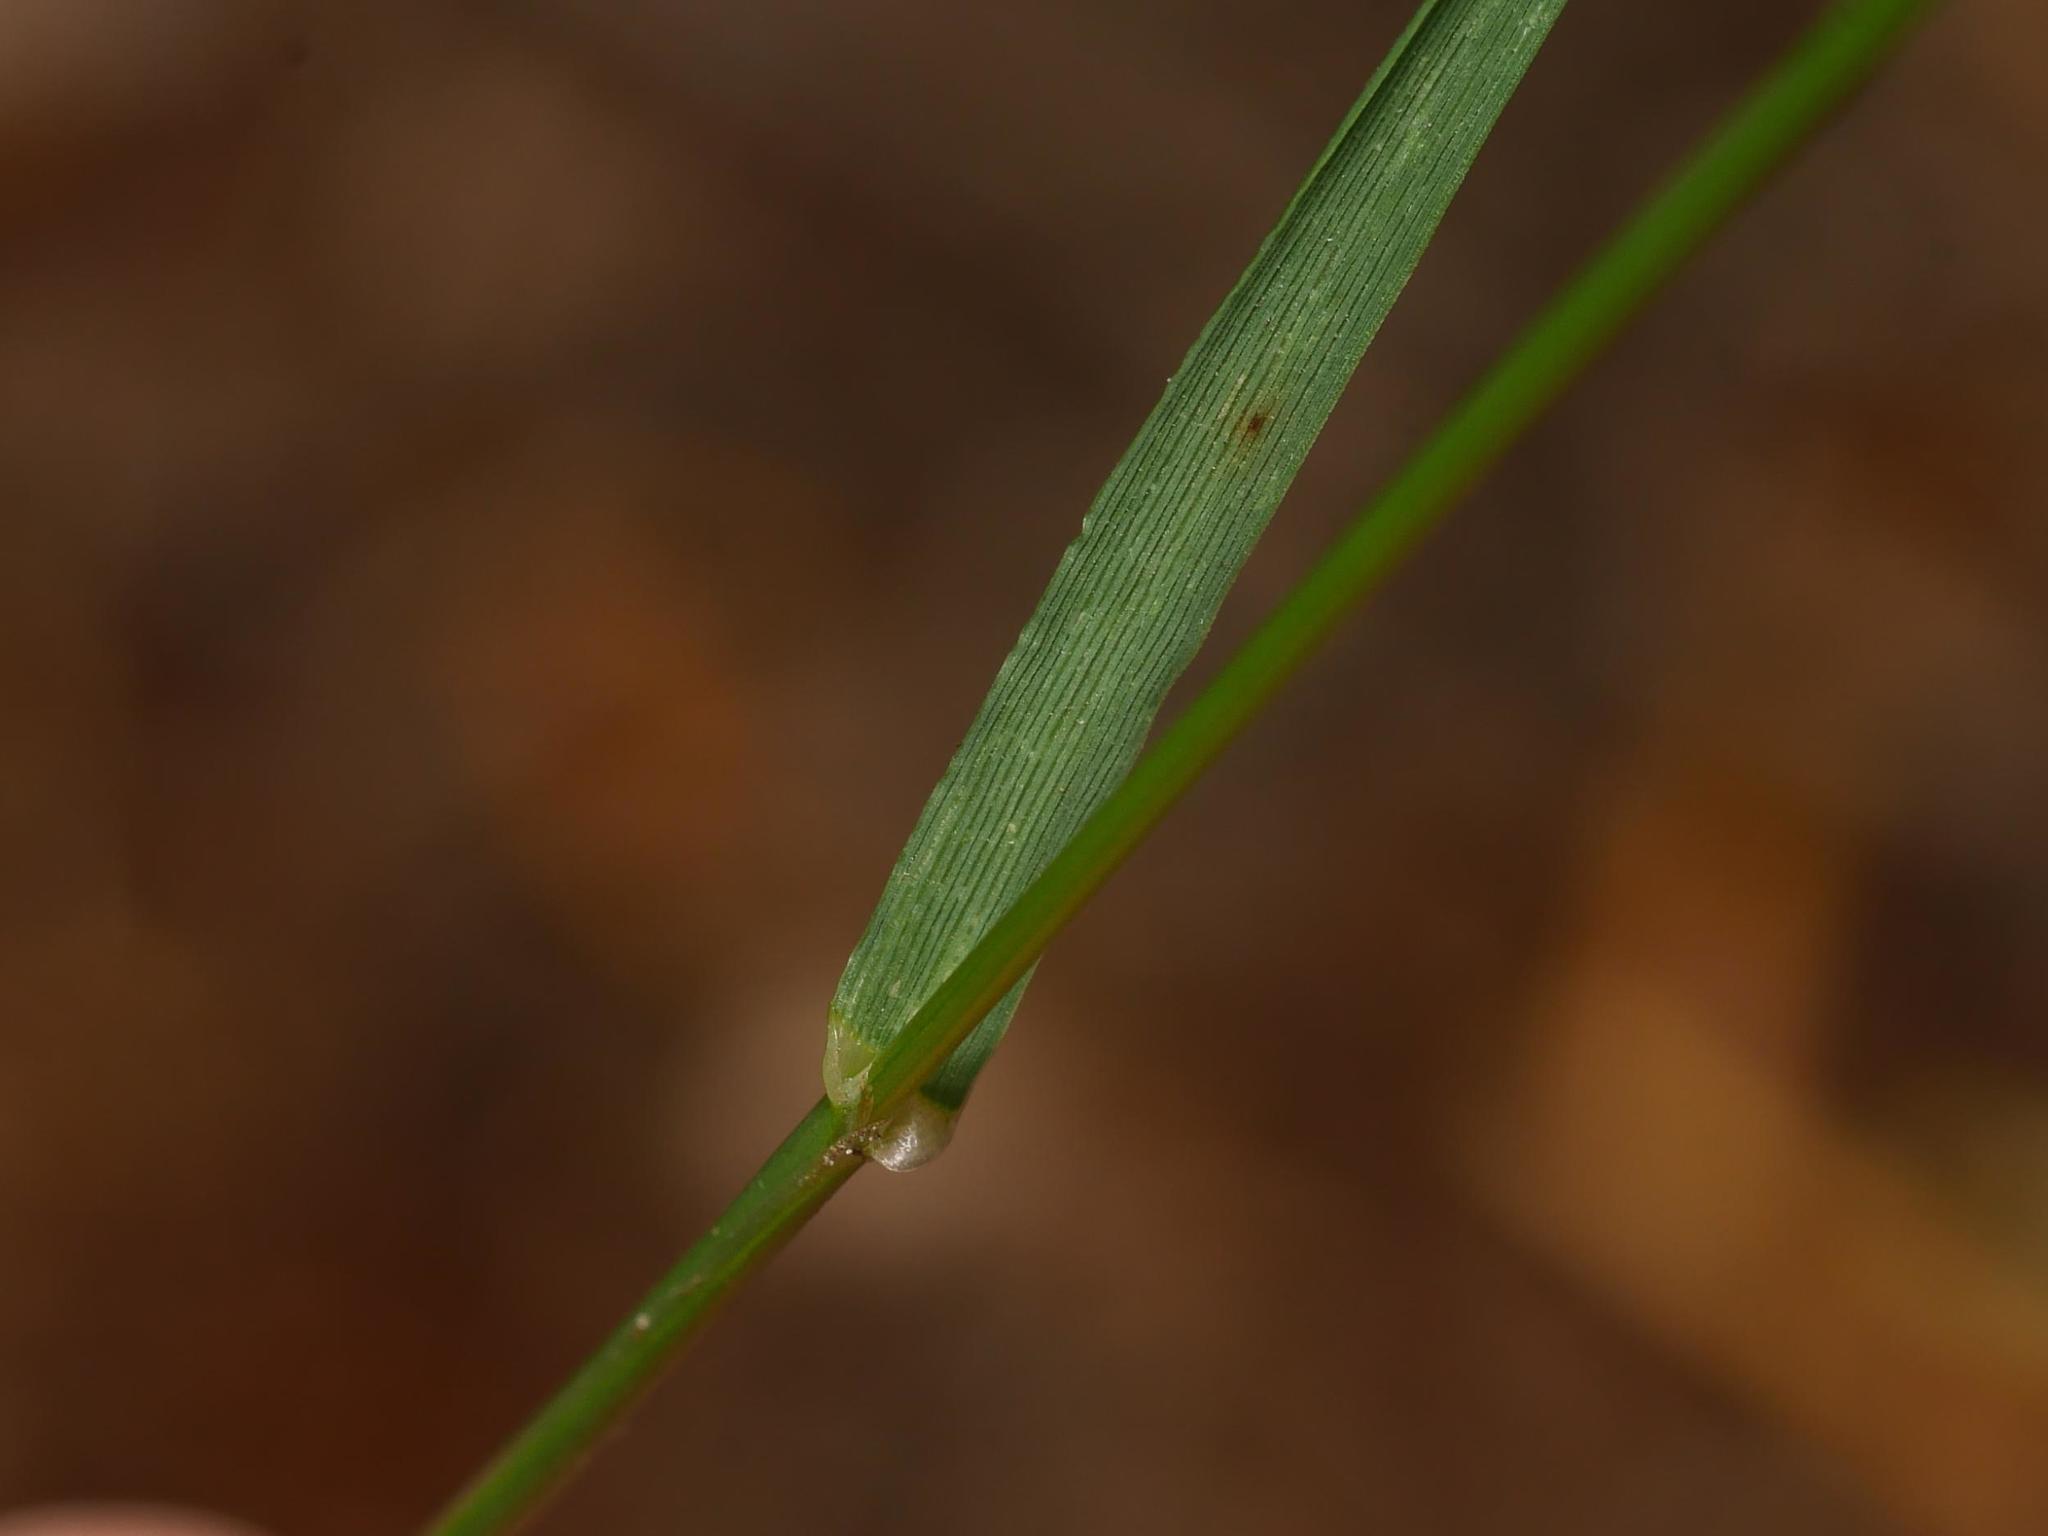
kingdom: Plantae
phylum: Tracheophyta
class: Liliopsida
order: Poales
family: Poaceae
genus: Lolium
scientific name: Lolium perenne
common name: Perennial ryegrass
